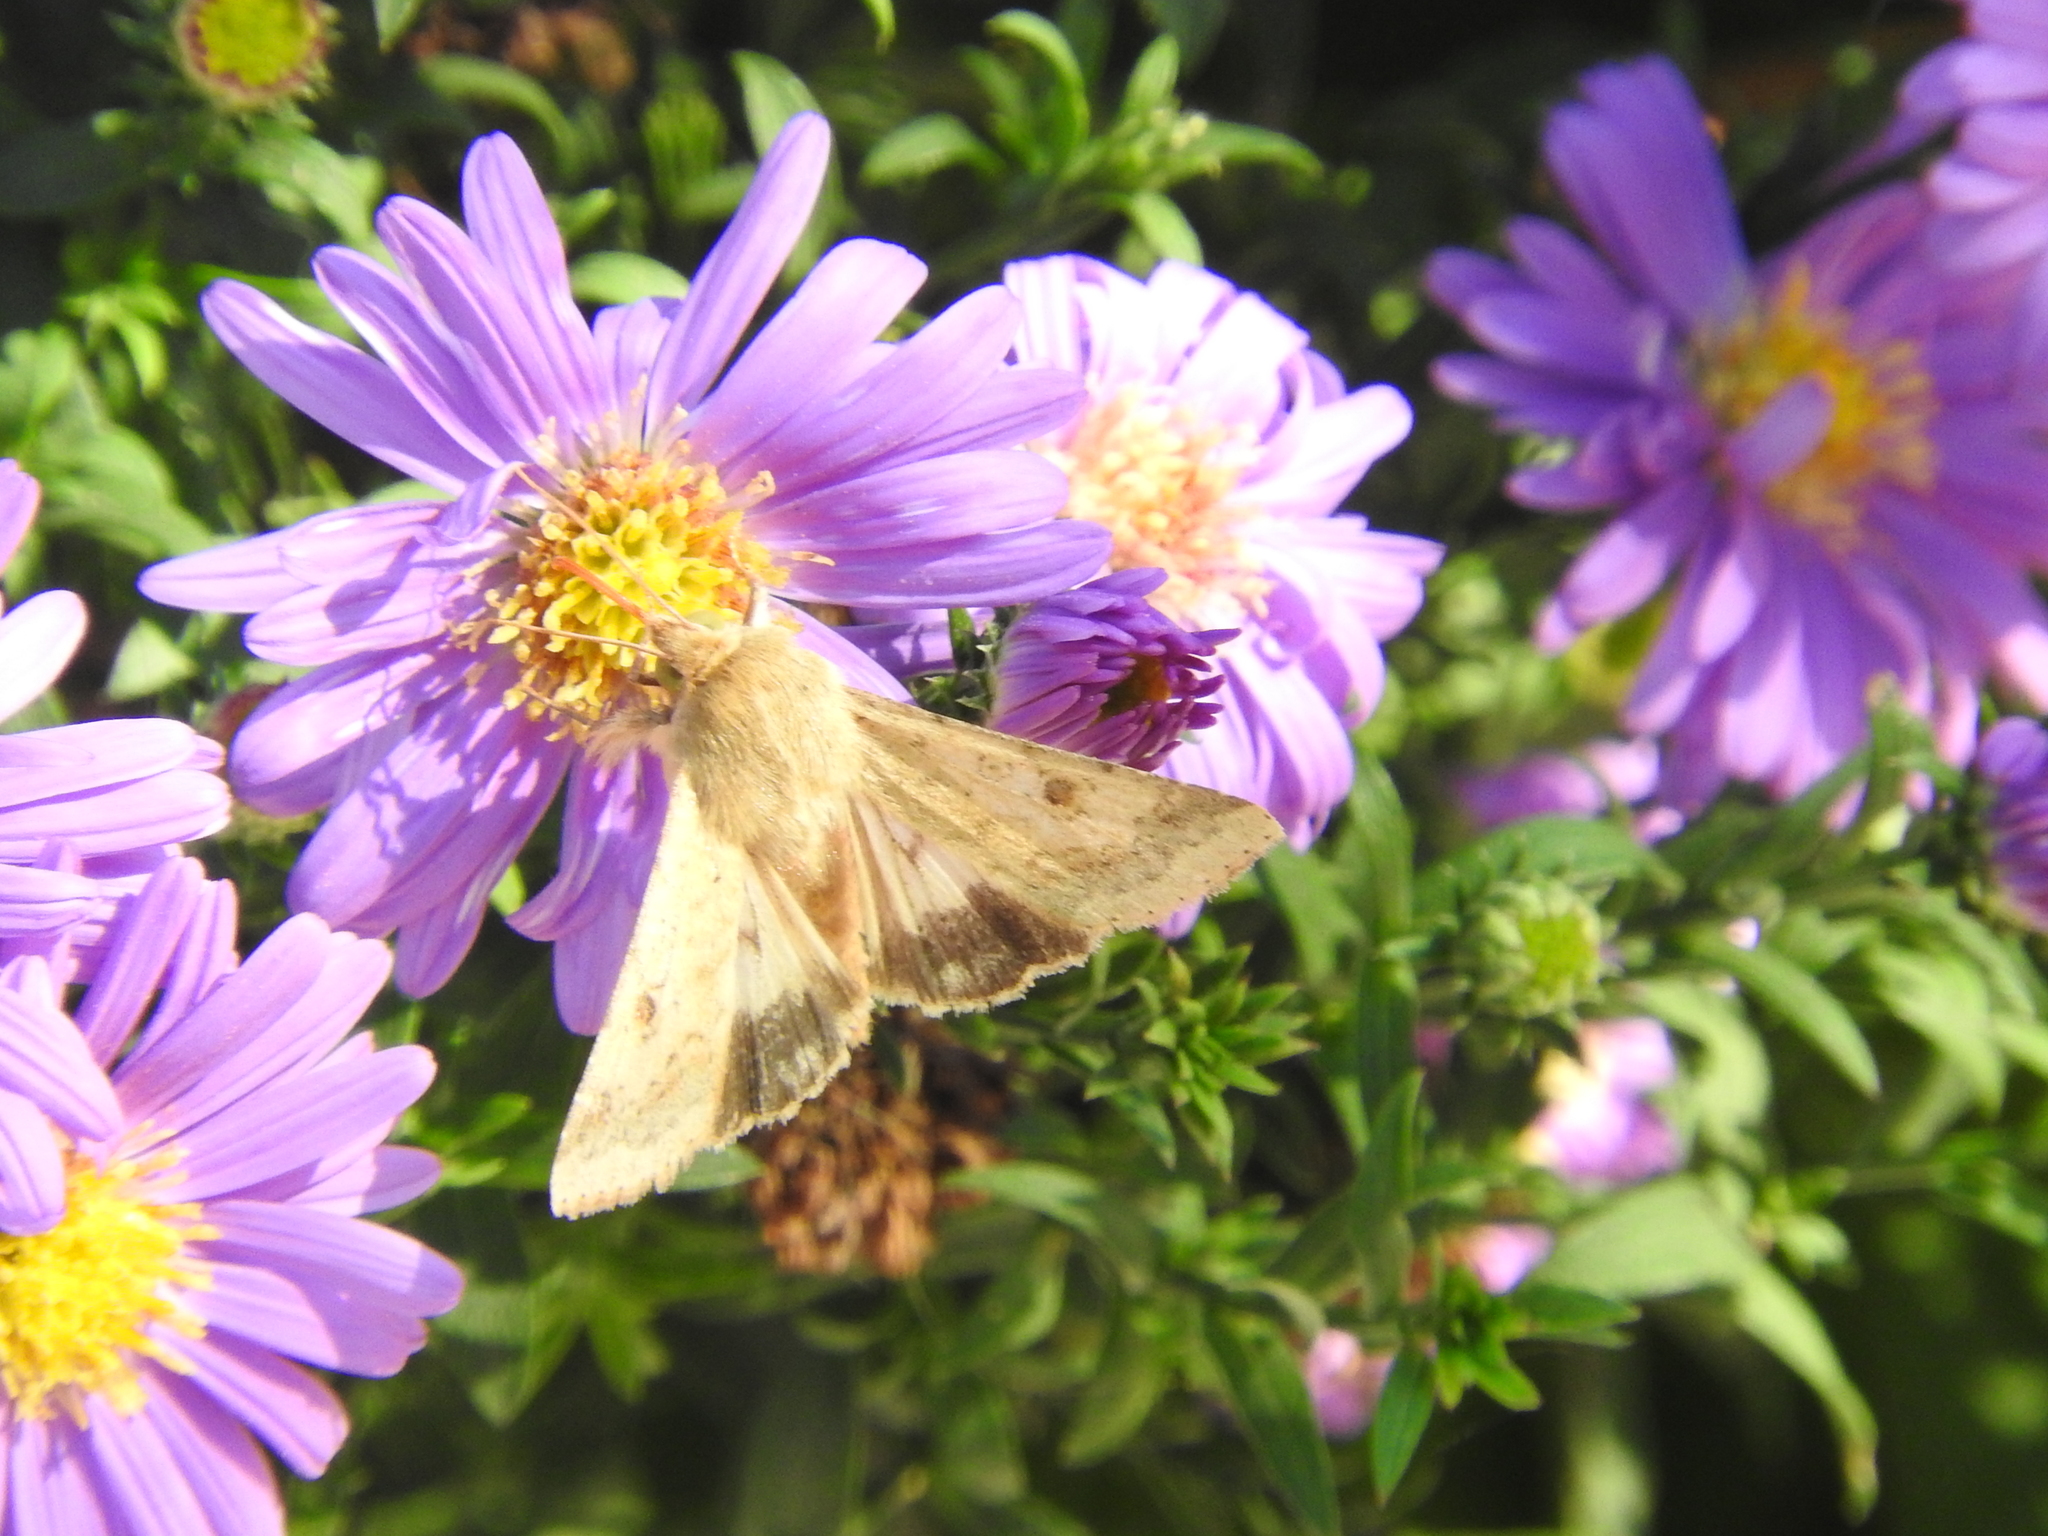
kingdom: Animalia
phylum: Arthropoda
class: Insecta
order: Lepidoptera
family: Noctuidae
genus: Helicoverpa
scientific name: Helicoverpa armigera
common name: Cotton bollworm
